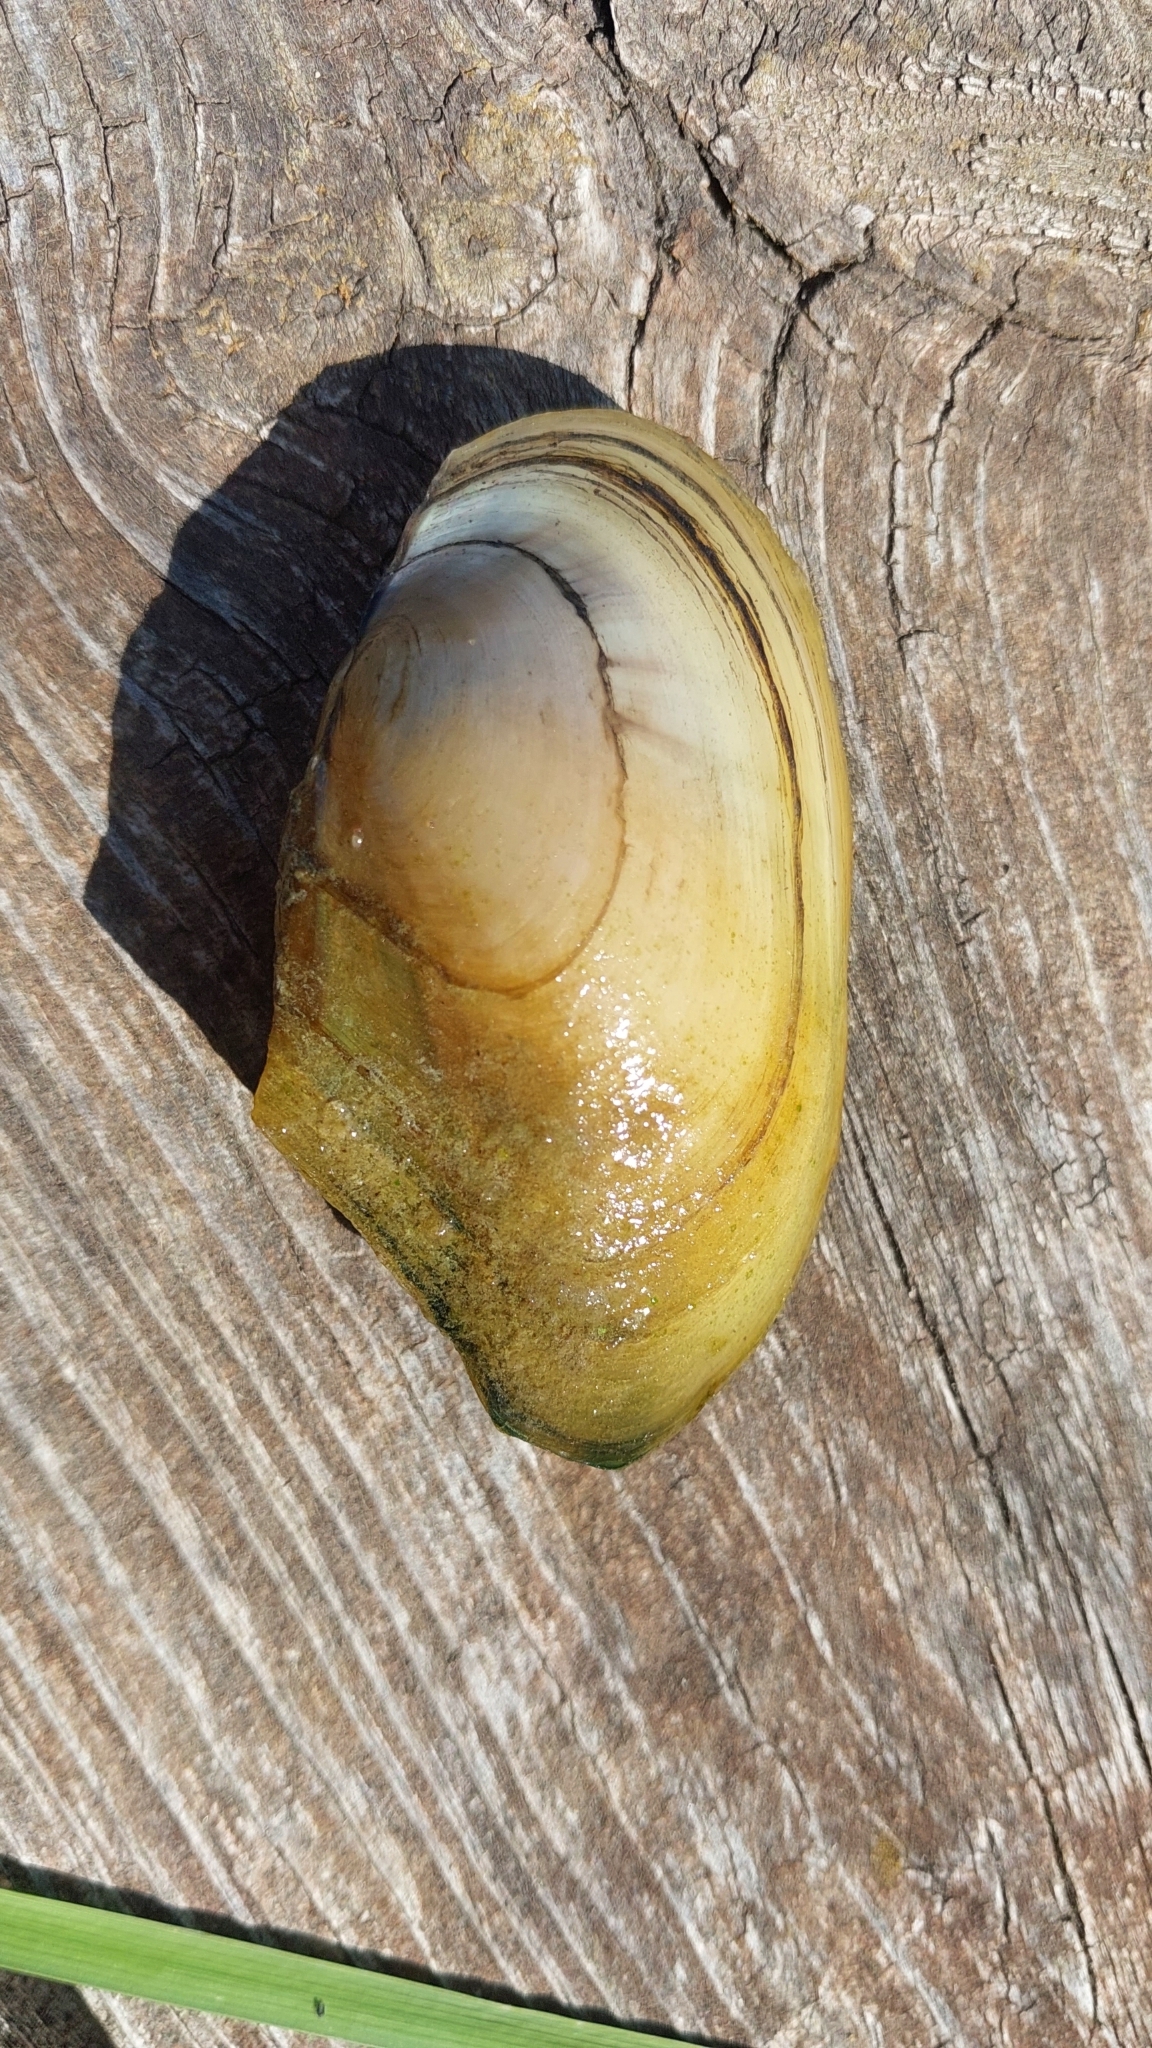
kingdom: Animalia
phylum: Mollusca
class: Bivalvia
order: Unionida
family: Unionidae
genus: Anodonta
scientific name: Anodonta anatina
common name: Duck mussel
